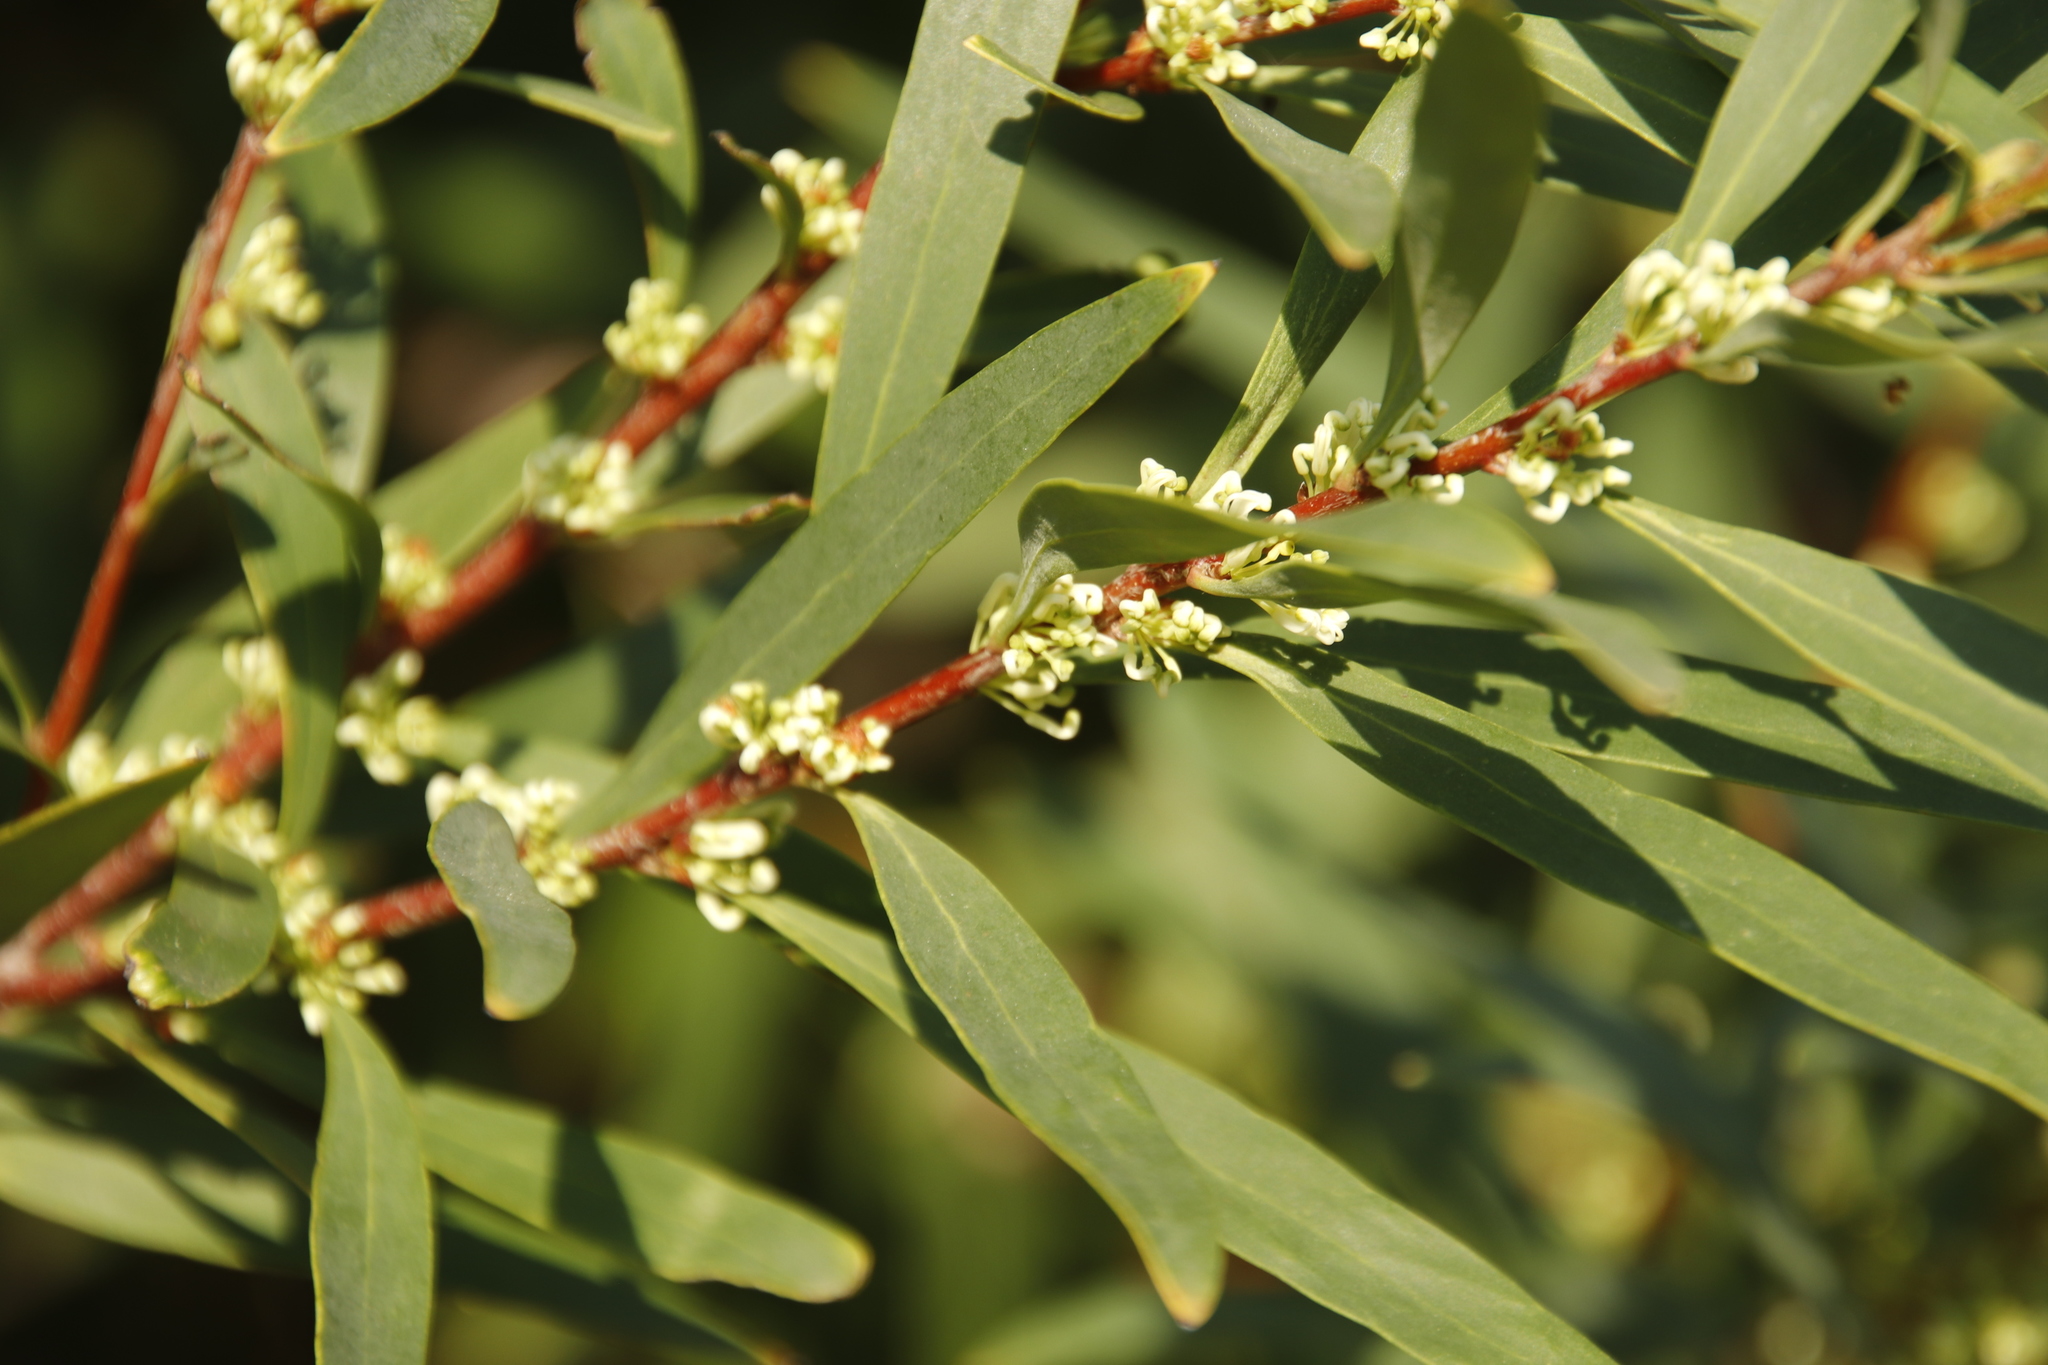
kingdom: Plantae
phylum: Tracheophyta
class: Magnoliopsida
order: Proteales
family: Proteaceae
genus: Hakea
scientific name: Hakea salicifolia
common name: Willow hakea
